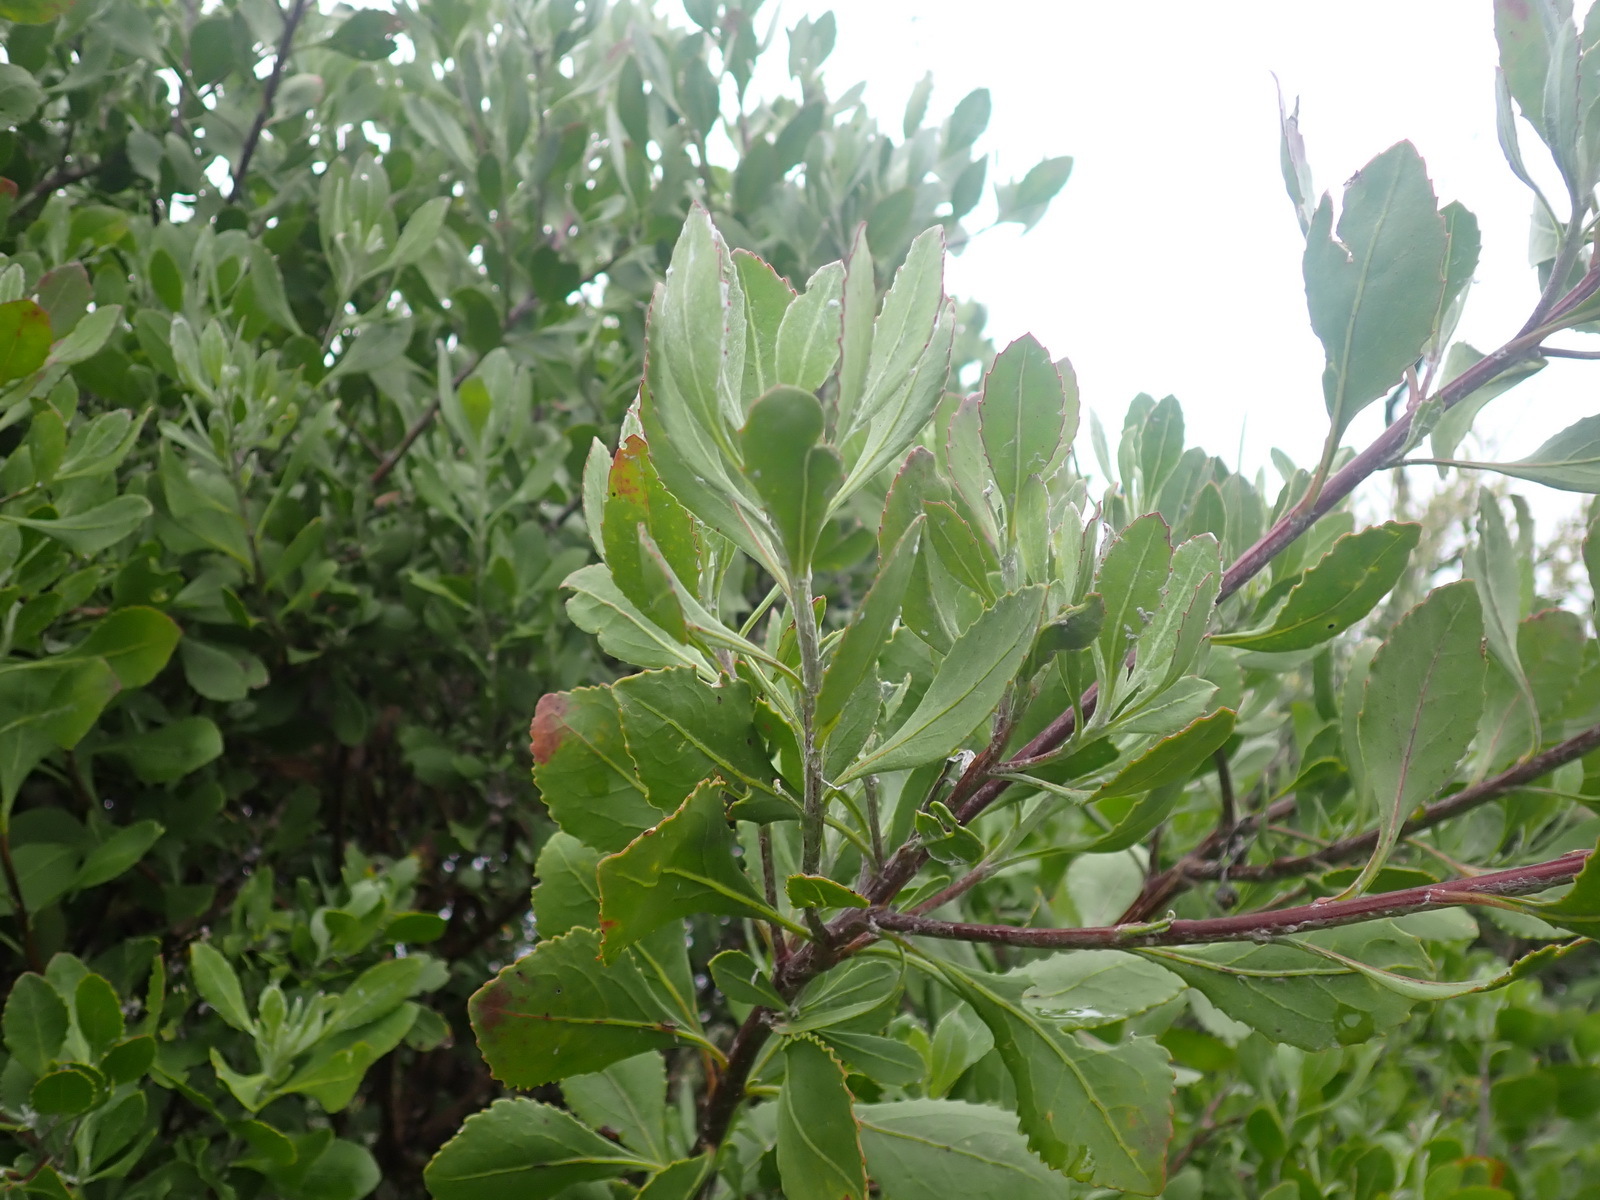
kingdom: Plantae
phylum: Tracheophyta
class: Magnoliopsida
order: Asterales
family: Asteraceae
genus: Osteospermum
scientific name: Osteospermum moniliferum
